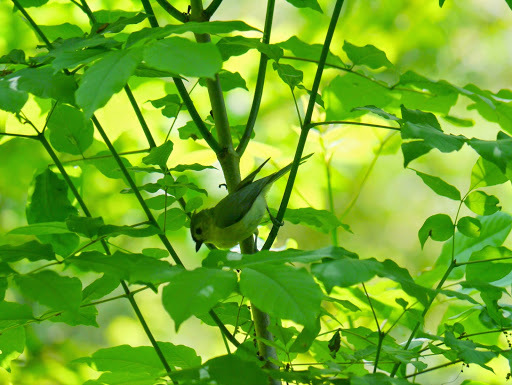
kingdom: Animalia
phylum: Chordata
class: Aves
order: Passeriformes
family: Paridae
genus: Baeolophus
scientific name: Baeolophus bicolor
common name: Tufted titmouse
